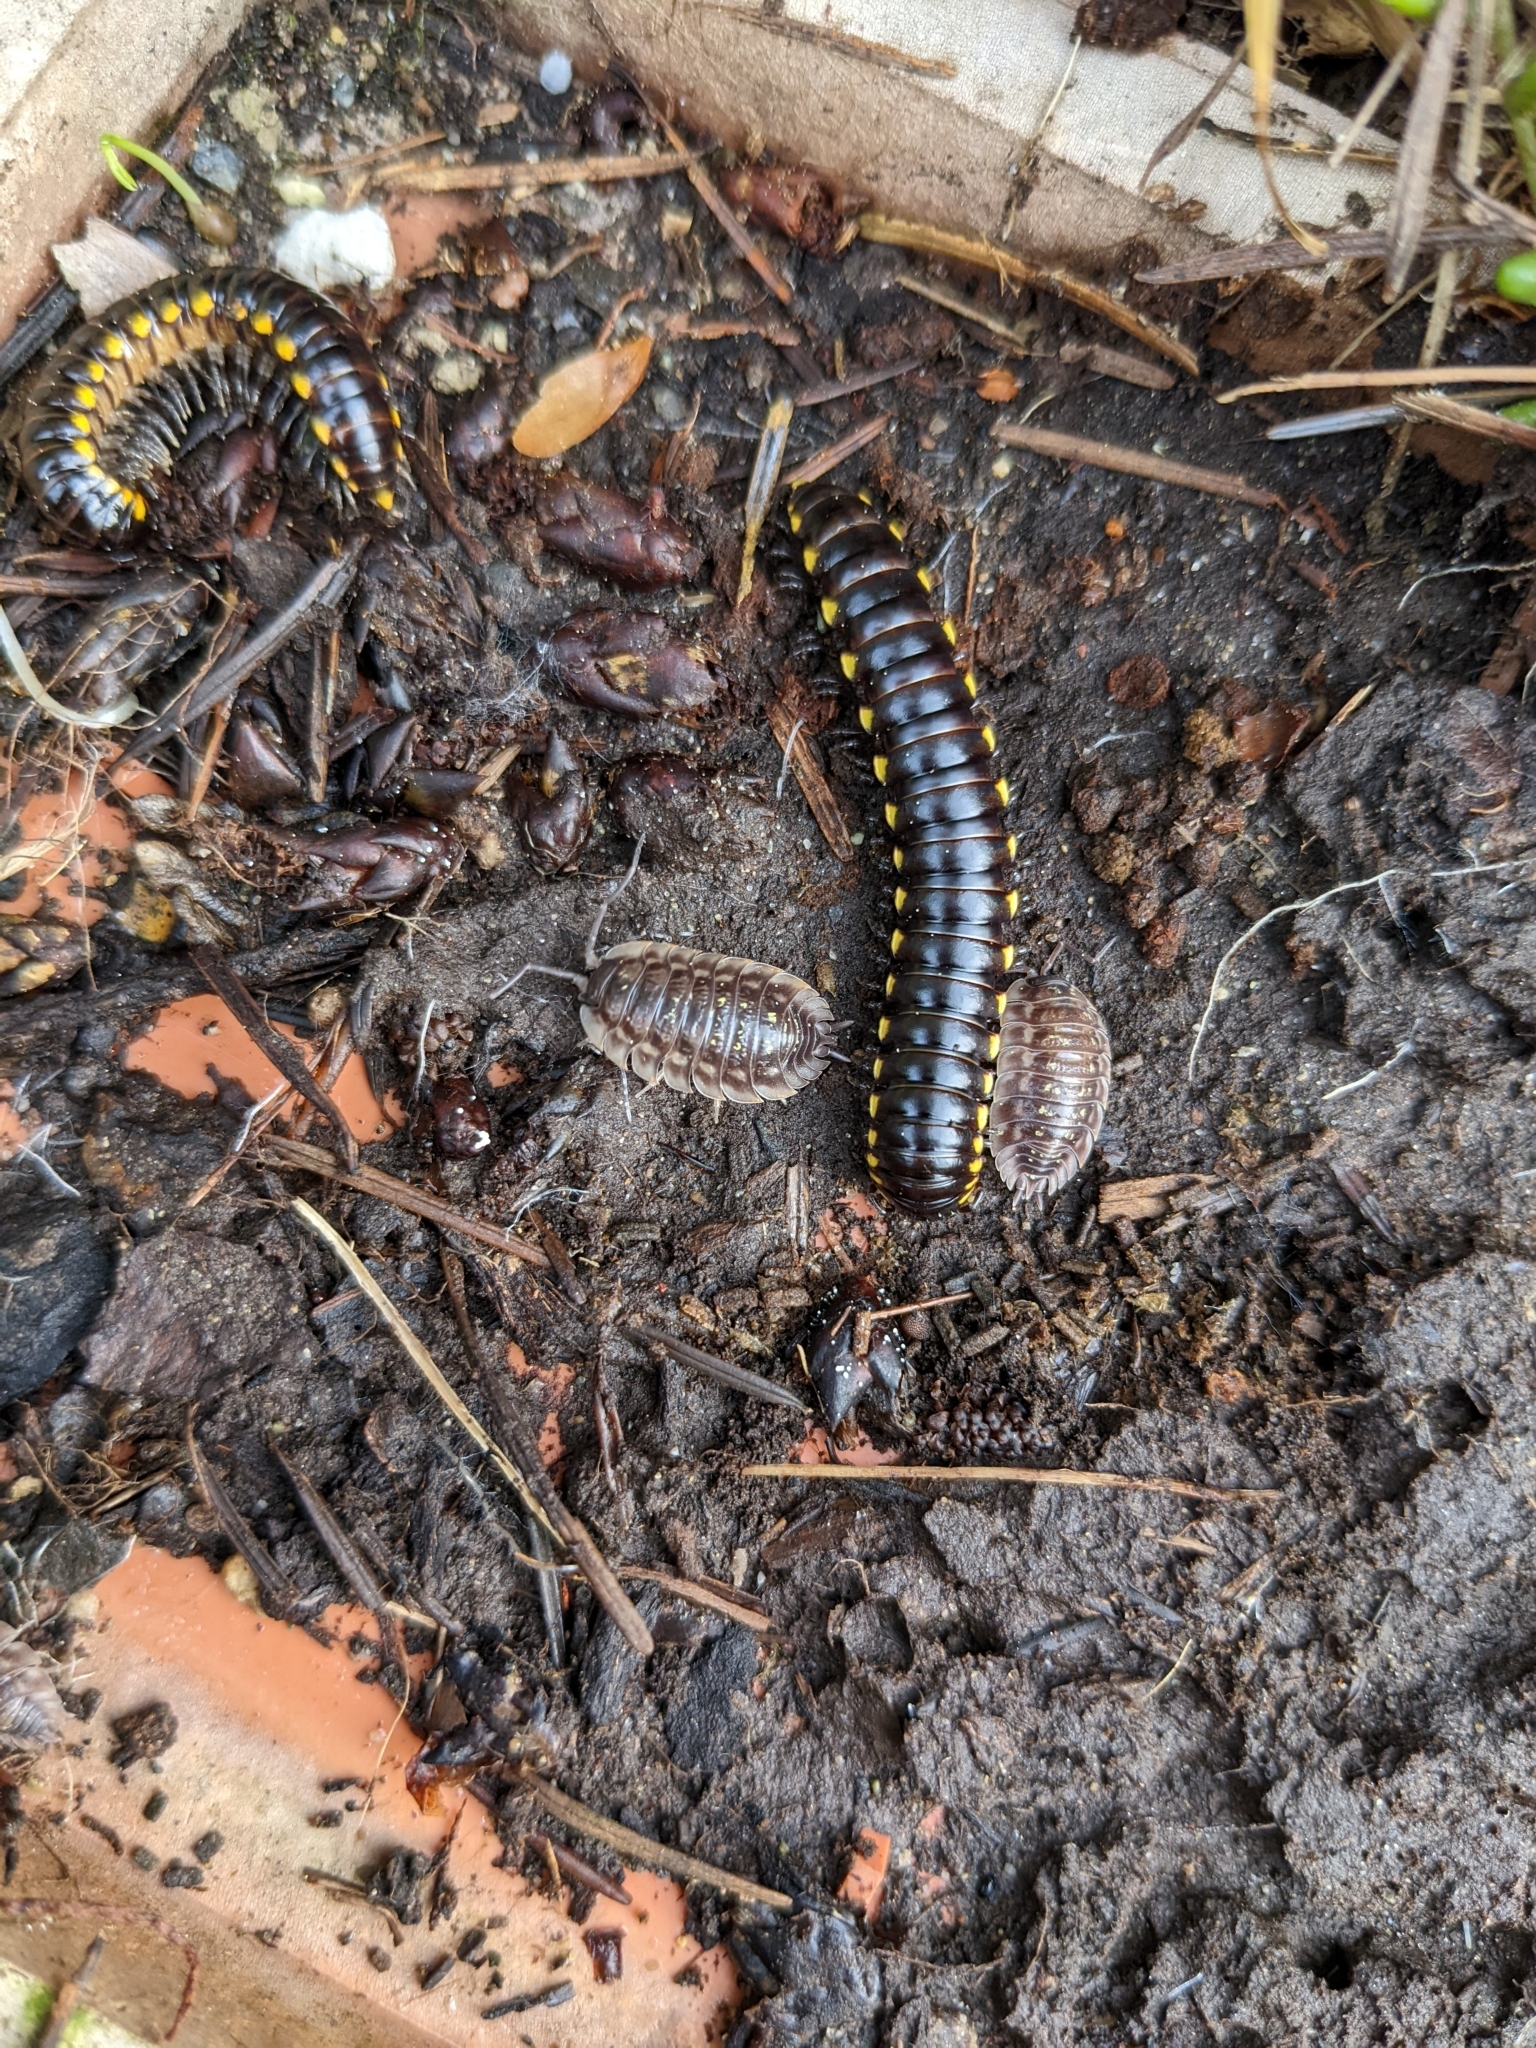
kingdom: Animalia
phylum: Arthropoda
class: Diplopoda
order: Polydesmida
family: Xystodesmidae
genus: Harpaphe
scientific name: Harpaphe haydeniana
